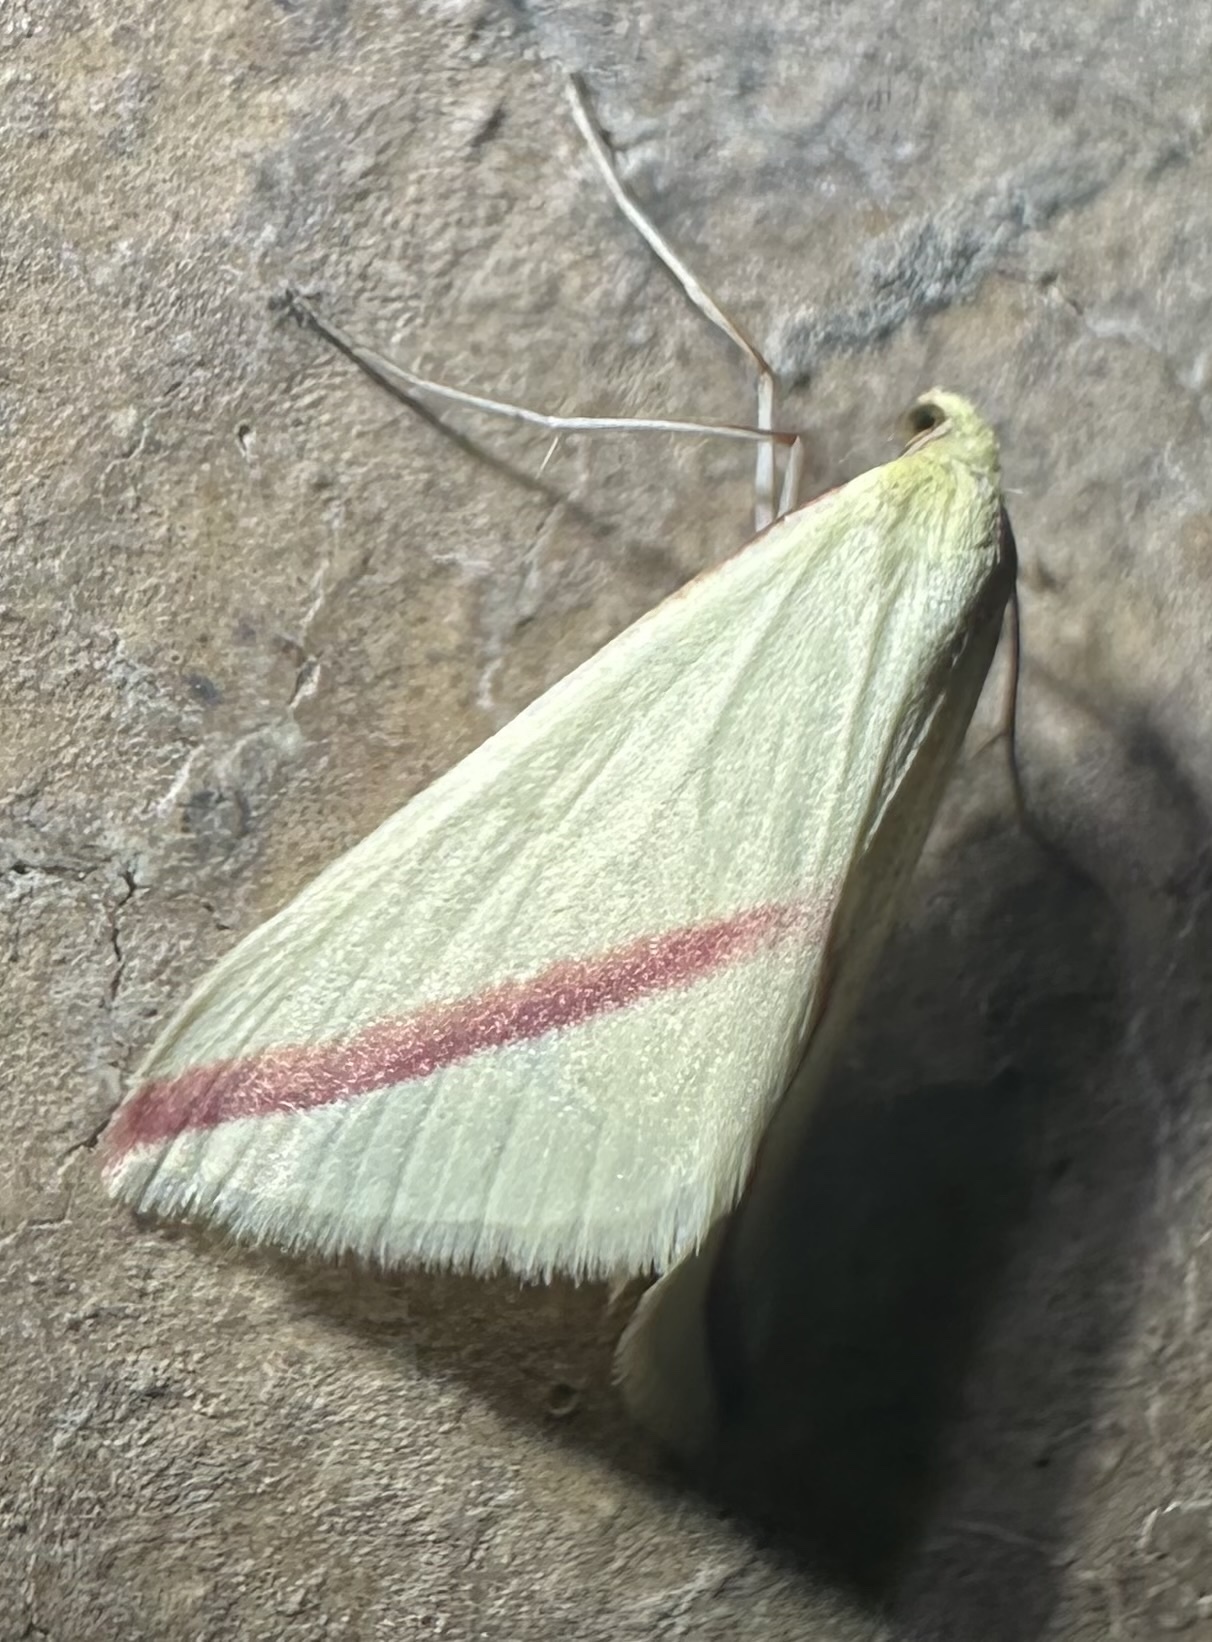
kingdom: Animalia
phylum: Arthropoda
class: Insecta
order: Lepidoptera
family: Geometridae
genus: Rhodometra
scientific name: Rhodometra sacraria
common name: Vestal
